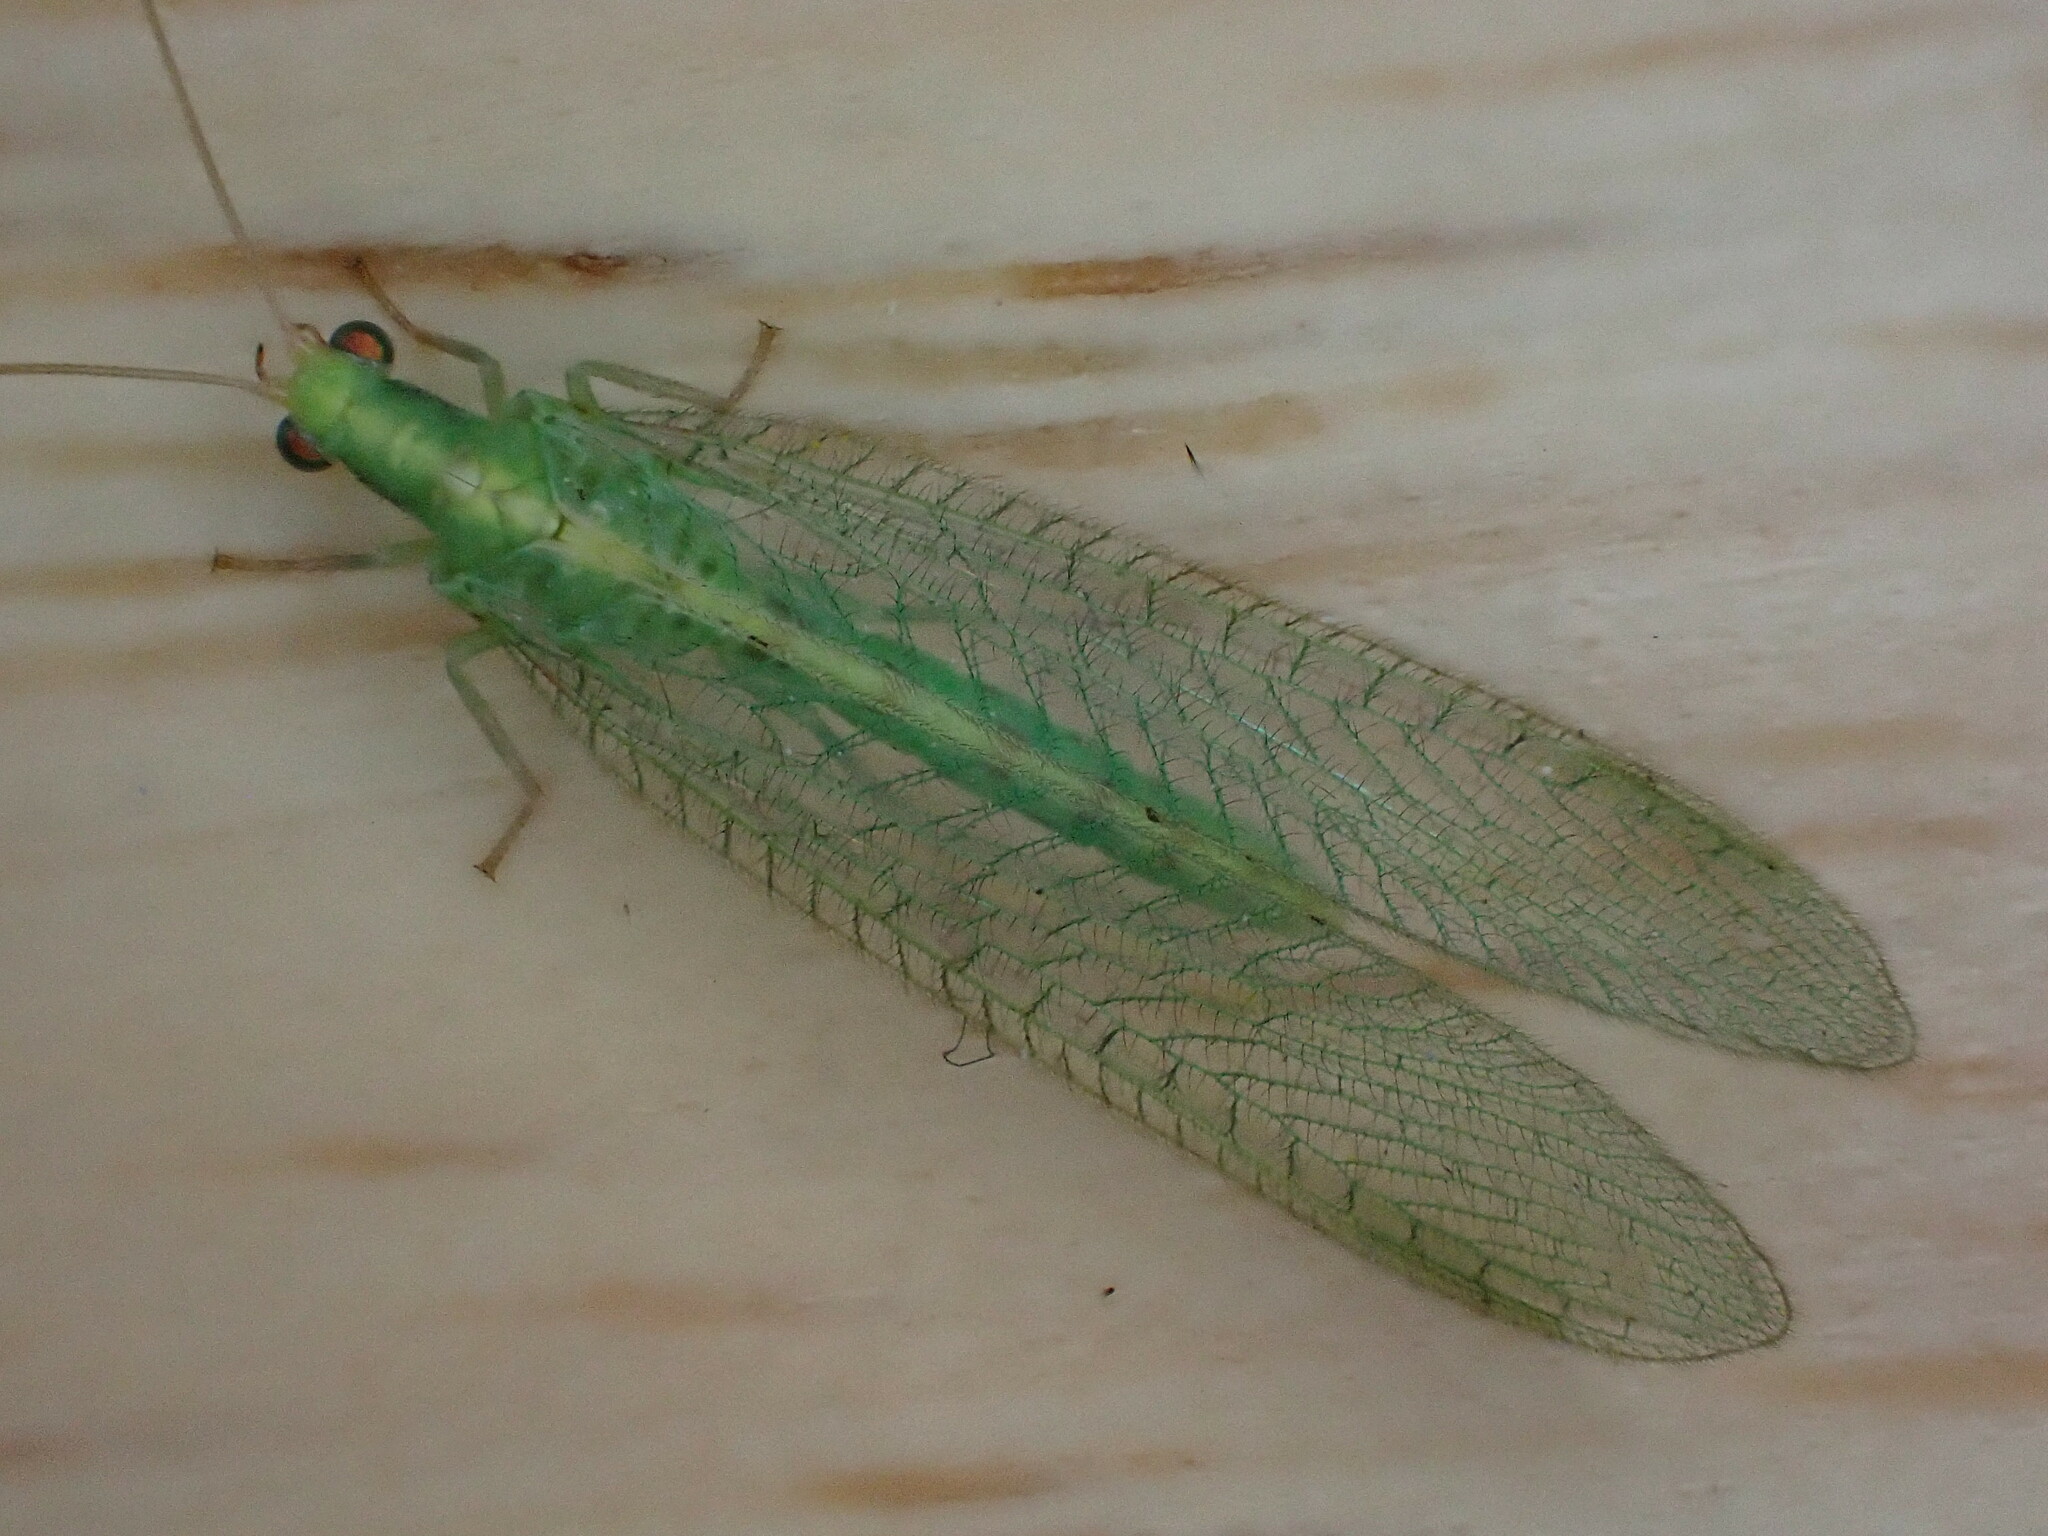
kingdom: Animalia
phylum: Arthropoda
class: Insecta
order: Neuroptera
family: Chrysopidae
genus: Chrysoperla
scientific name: Chrysoperla
